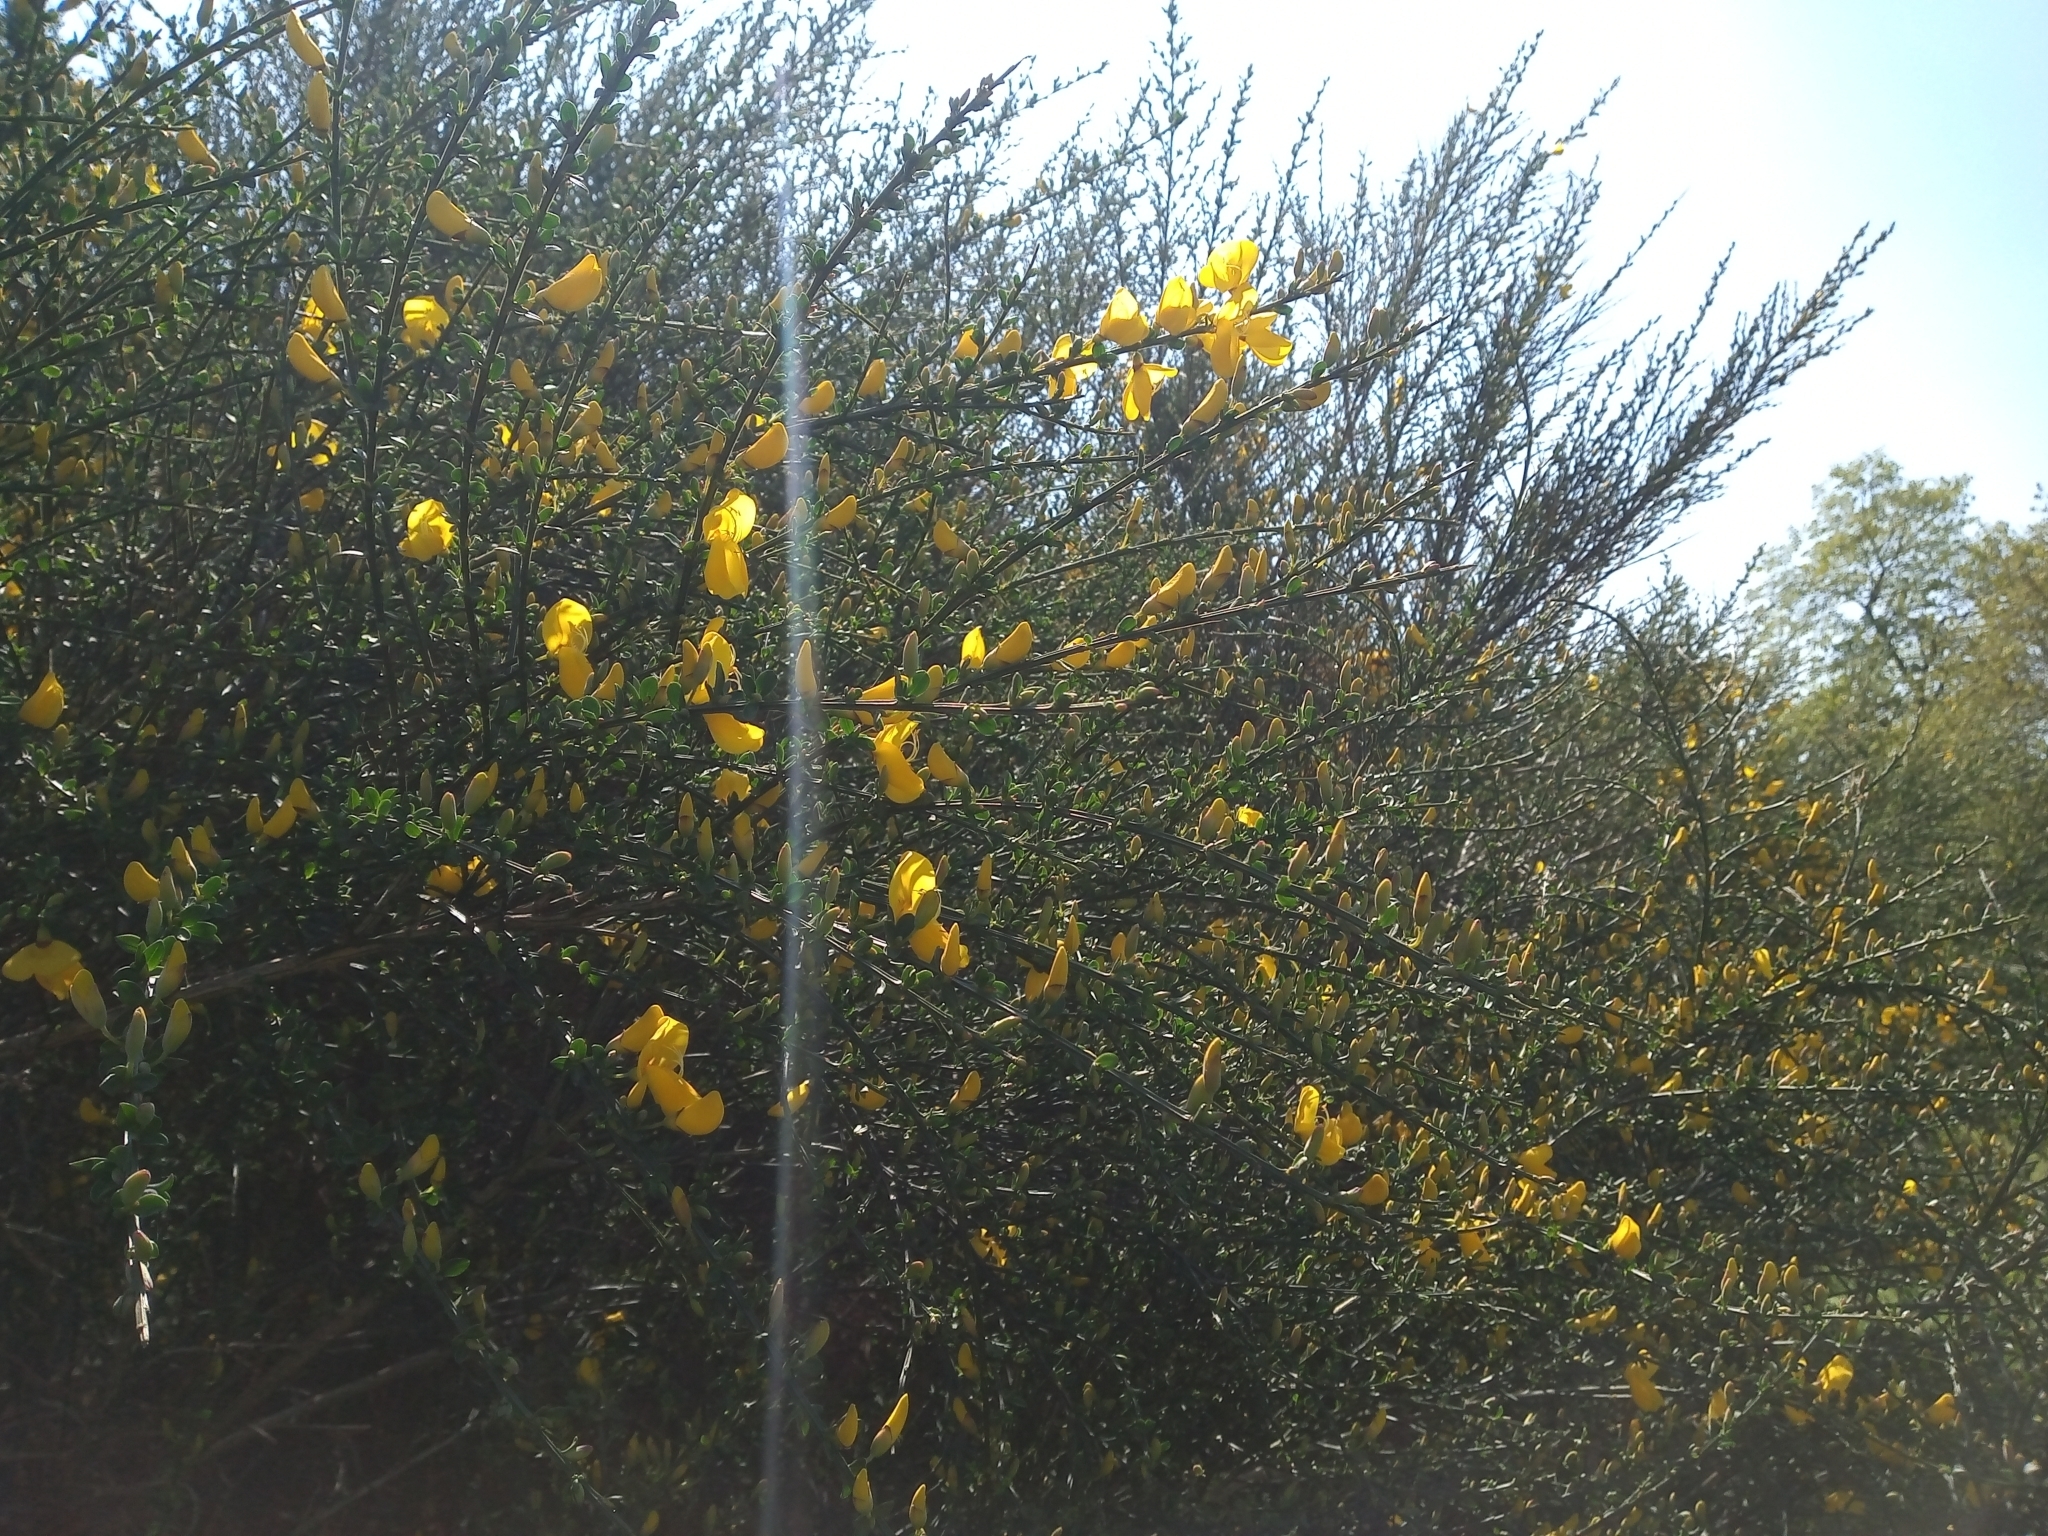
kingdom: Plantae
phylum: Tracheophyta
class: Magnoliopsida
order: Fabales
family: Fabaceae
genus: Cytisus
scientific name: Cytisus scoparius
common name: Scotch broom
